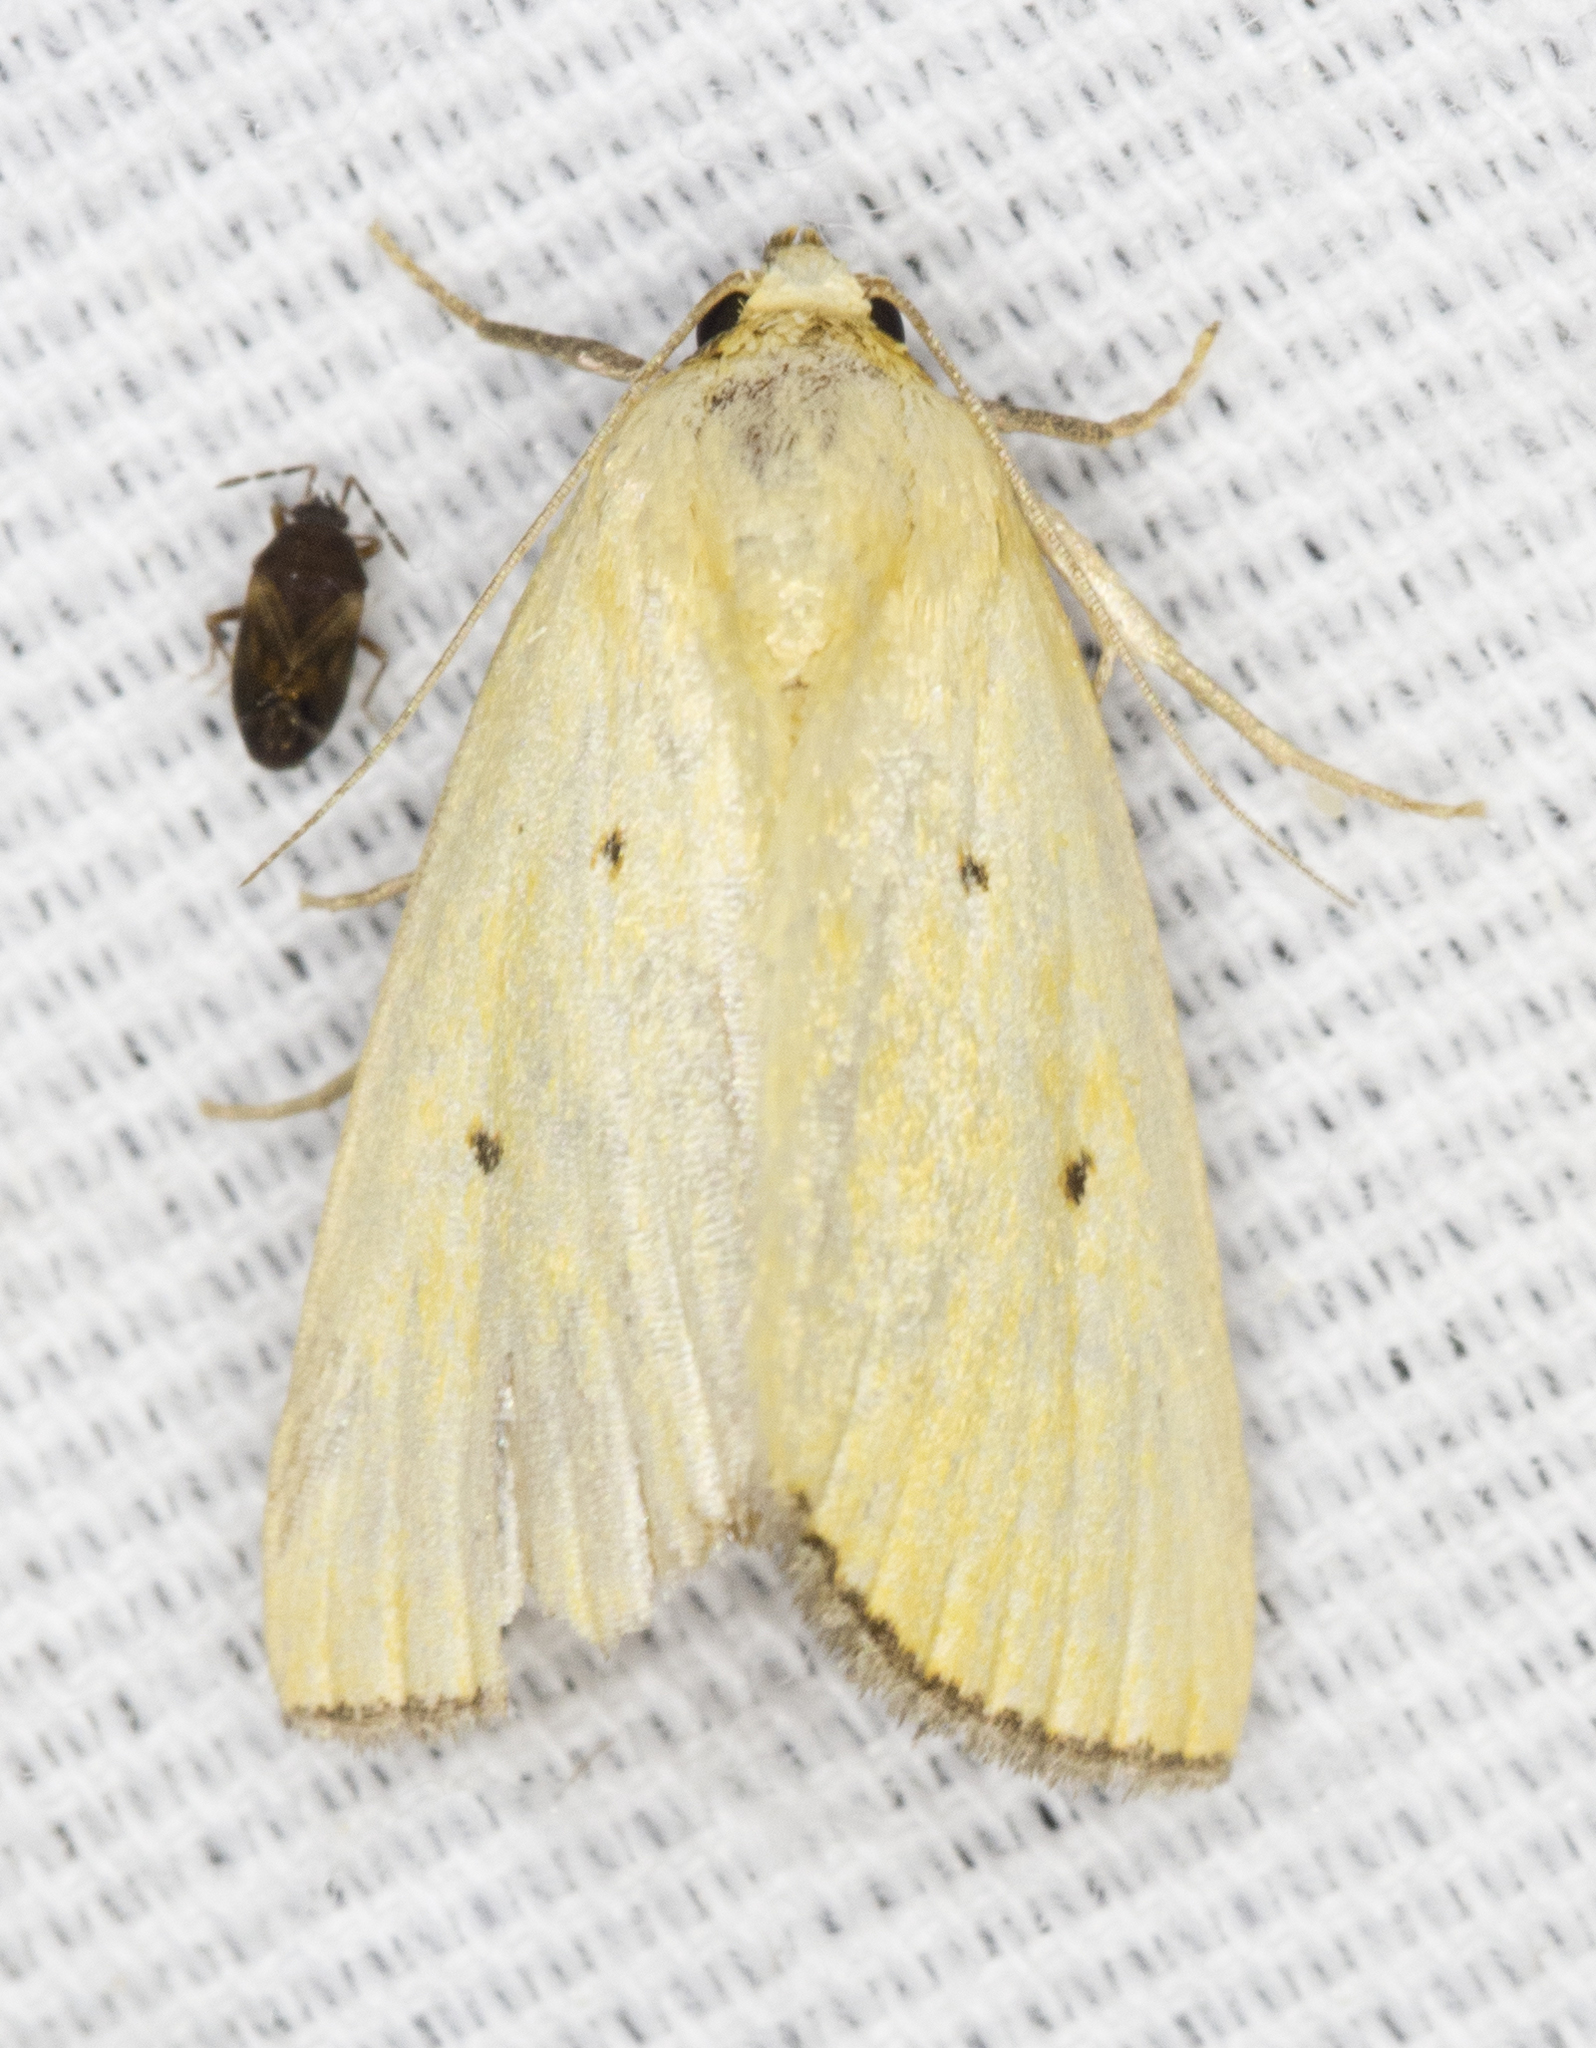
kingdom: Animalia
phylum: Arthropoda
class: Insecta
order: Lepidoptera
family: Noctuidae
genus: Marimatha
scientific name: Marimatha nigrofimbria
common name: Black-bordered lemon moth
